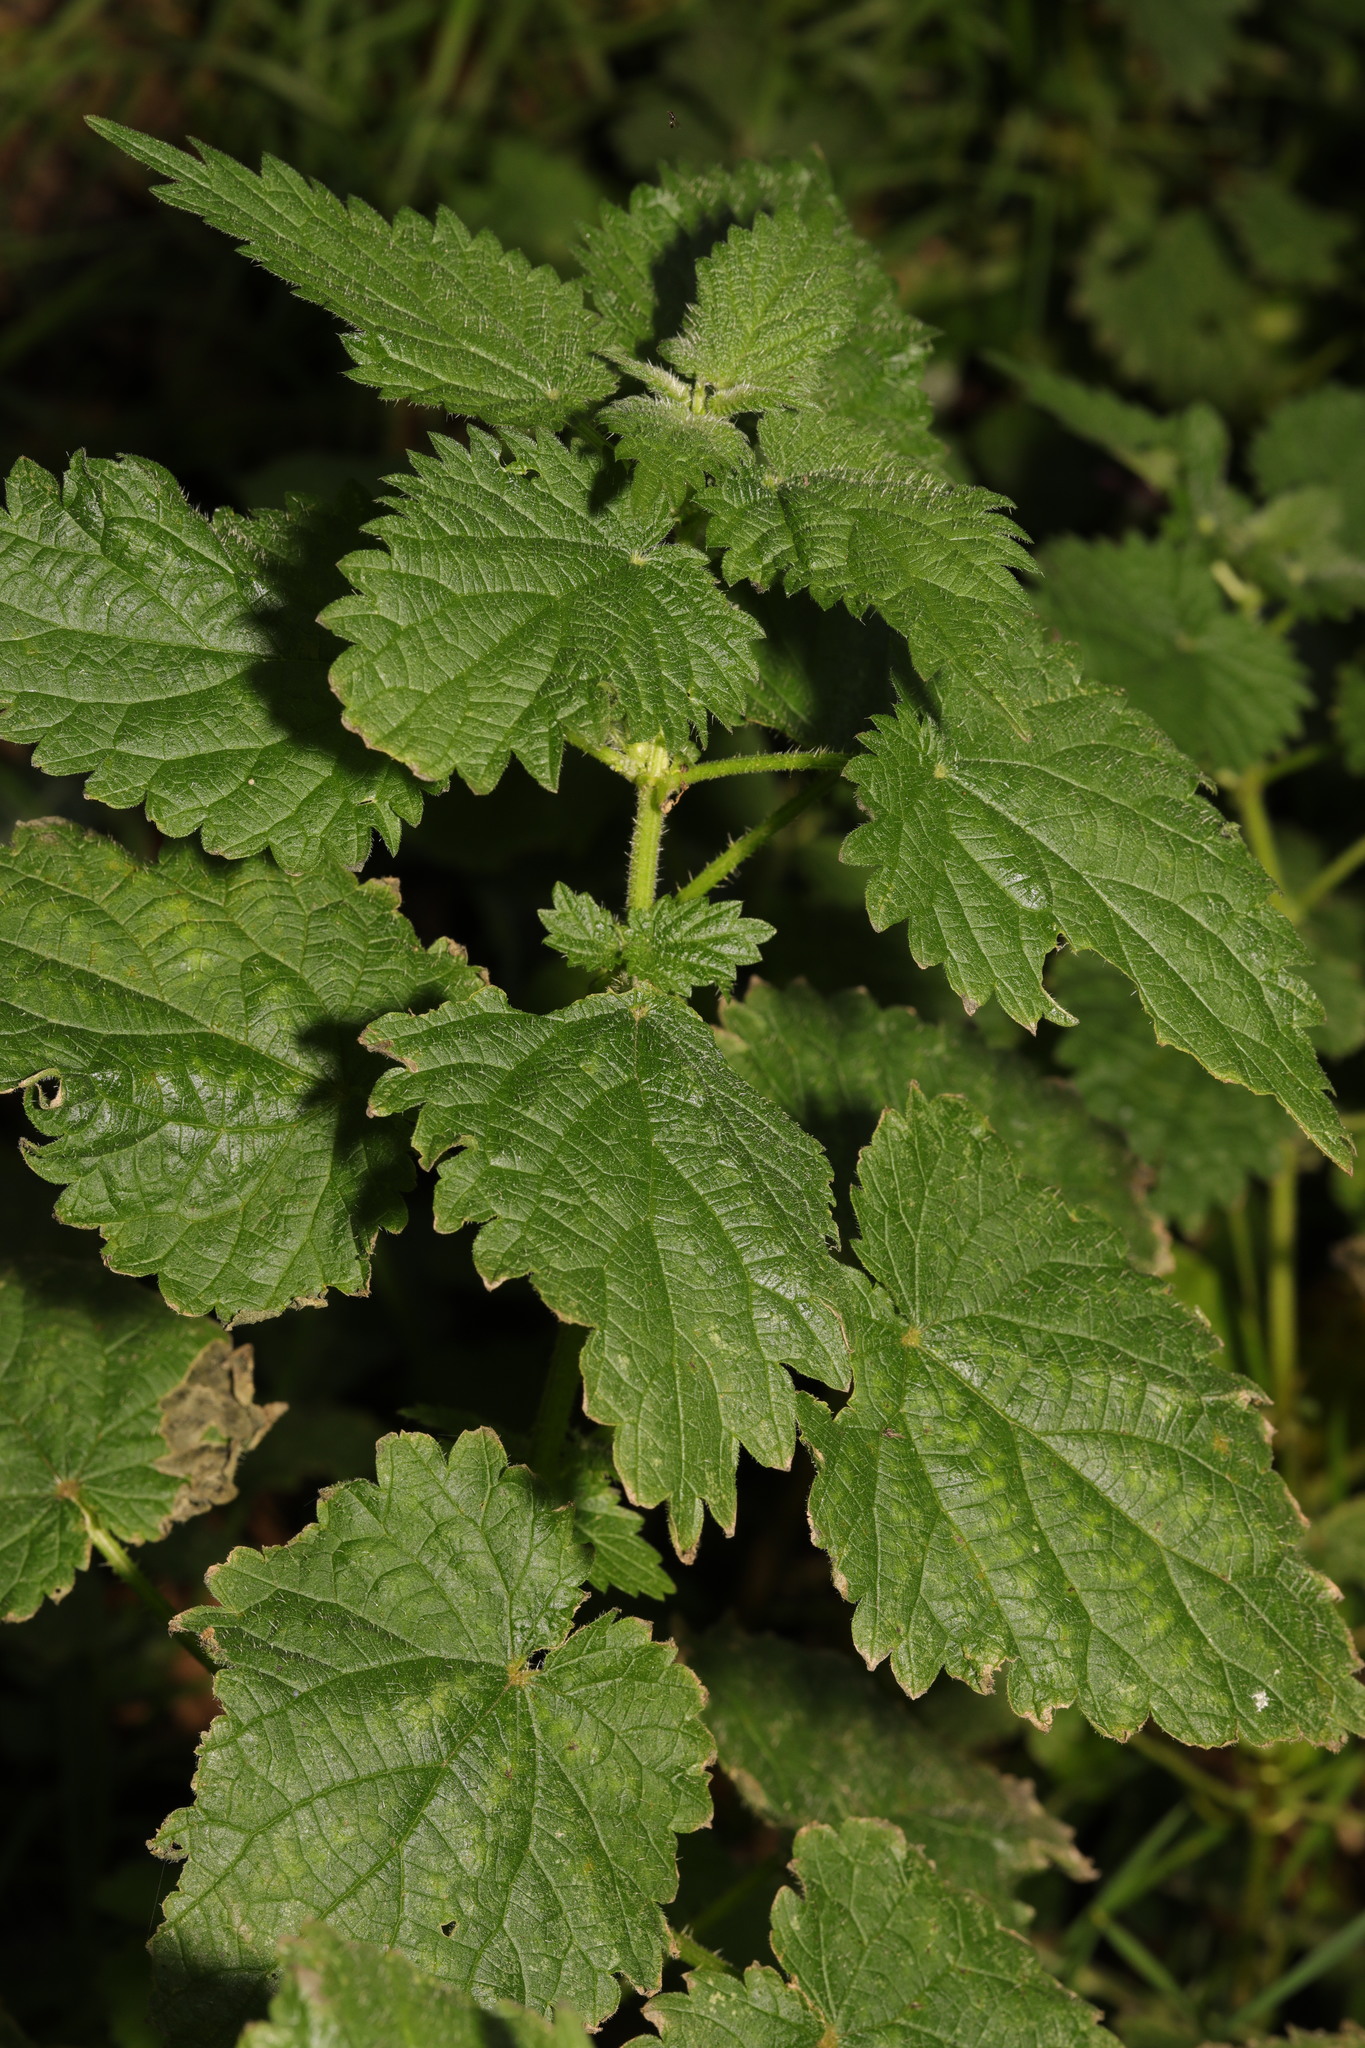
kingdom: Plantae
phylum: Tracheophyta
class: Magnoliopsida
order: Rosales
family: Urticaceae
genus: Urtica
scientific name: Urtica dioica
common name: Common nettle
